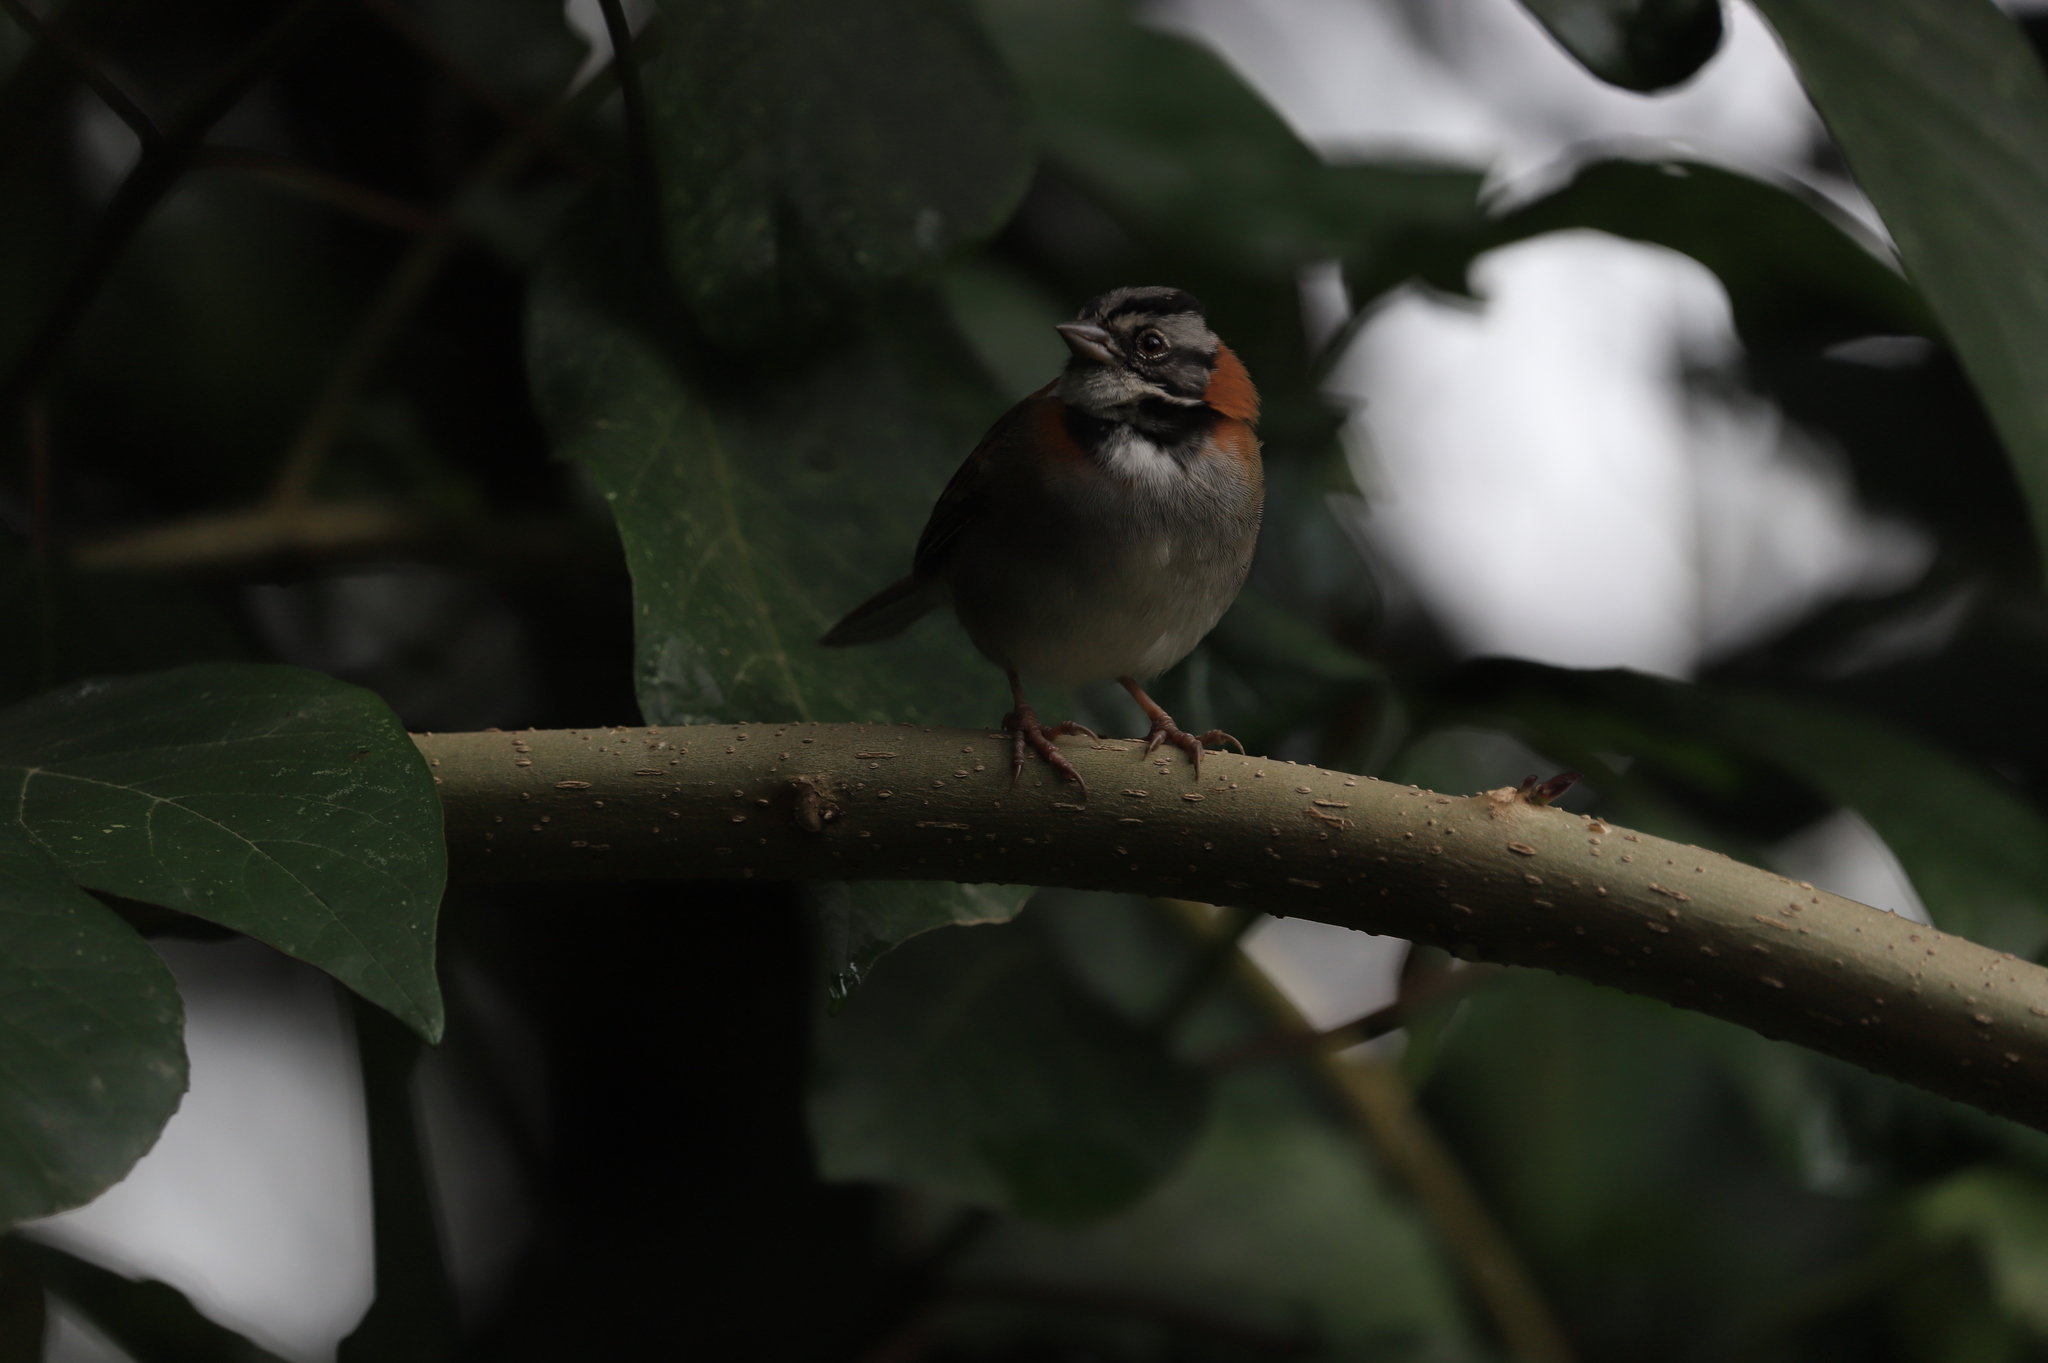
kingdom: Animalia
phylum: Chordata
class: Aves
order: Passeriformes
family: Passerellidae
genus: Zonotrichia
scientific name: Zonotrichia capensis
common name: Rufous-collared sparrow
